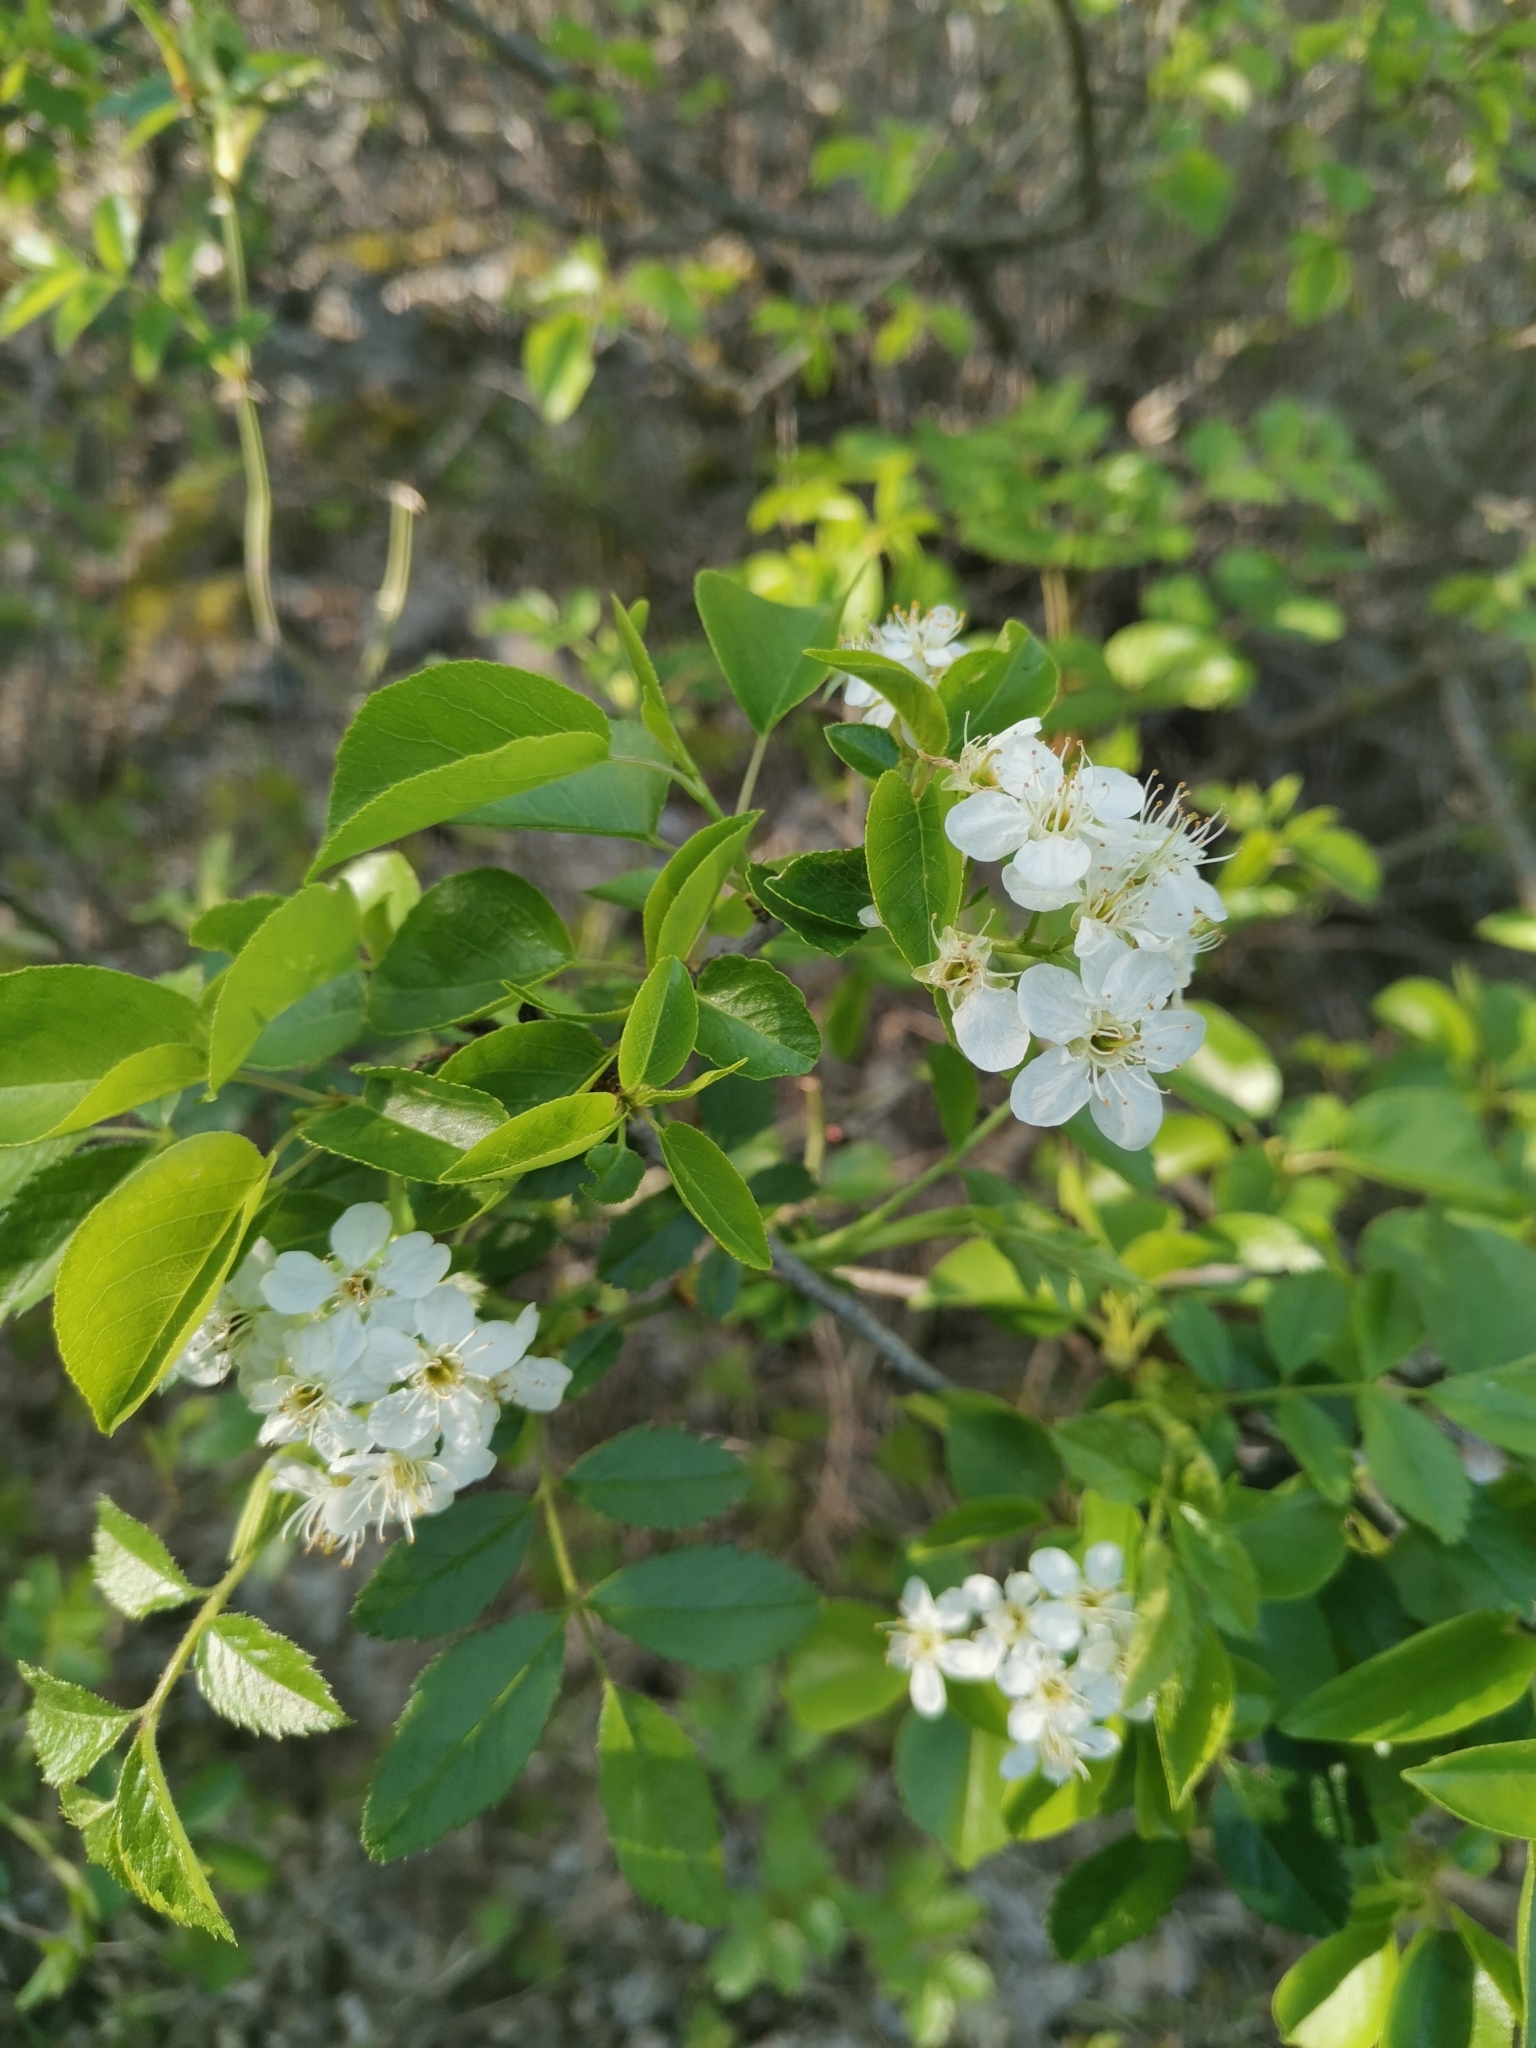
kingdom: Plantae
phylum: Tracheophyta
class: Magnoliopsida
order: Rosales
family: Rosaceae
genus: Prunus
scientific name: Prunus mahaleb
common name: Mahaleb cherry
